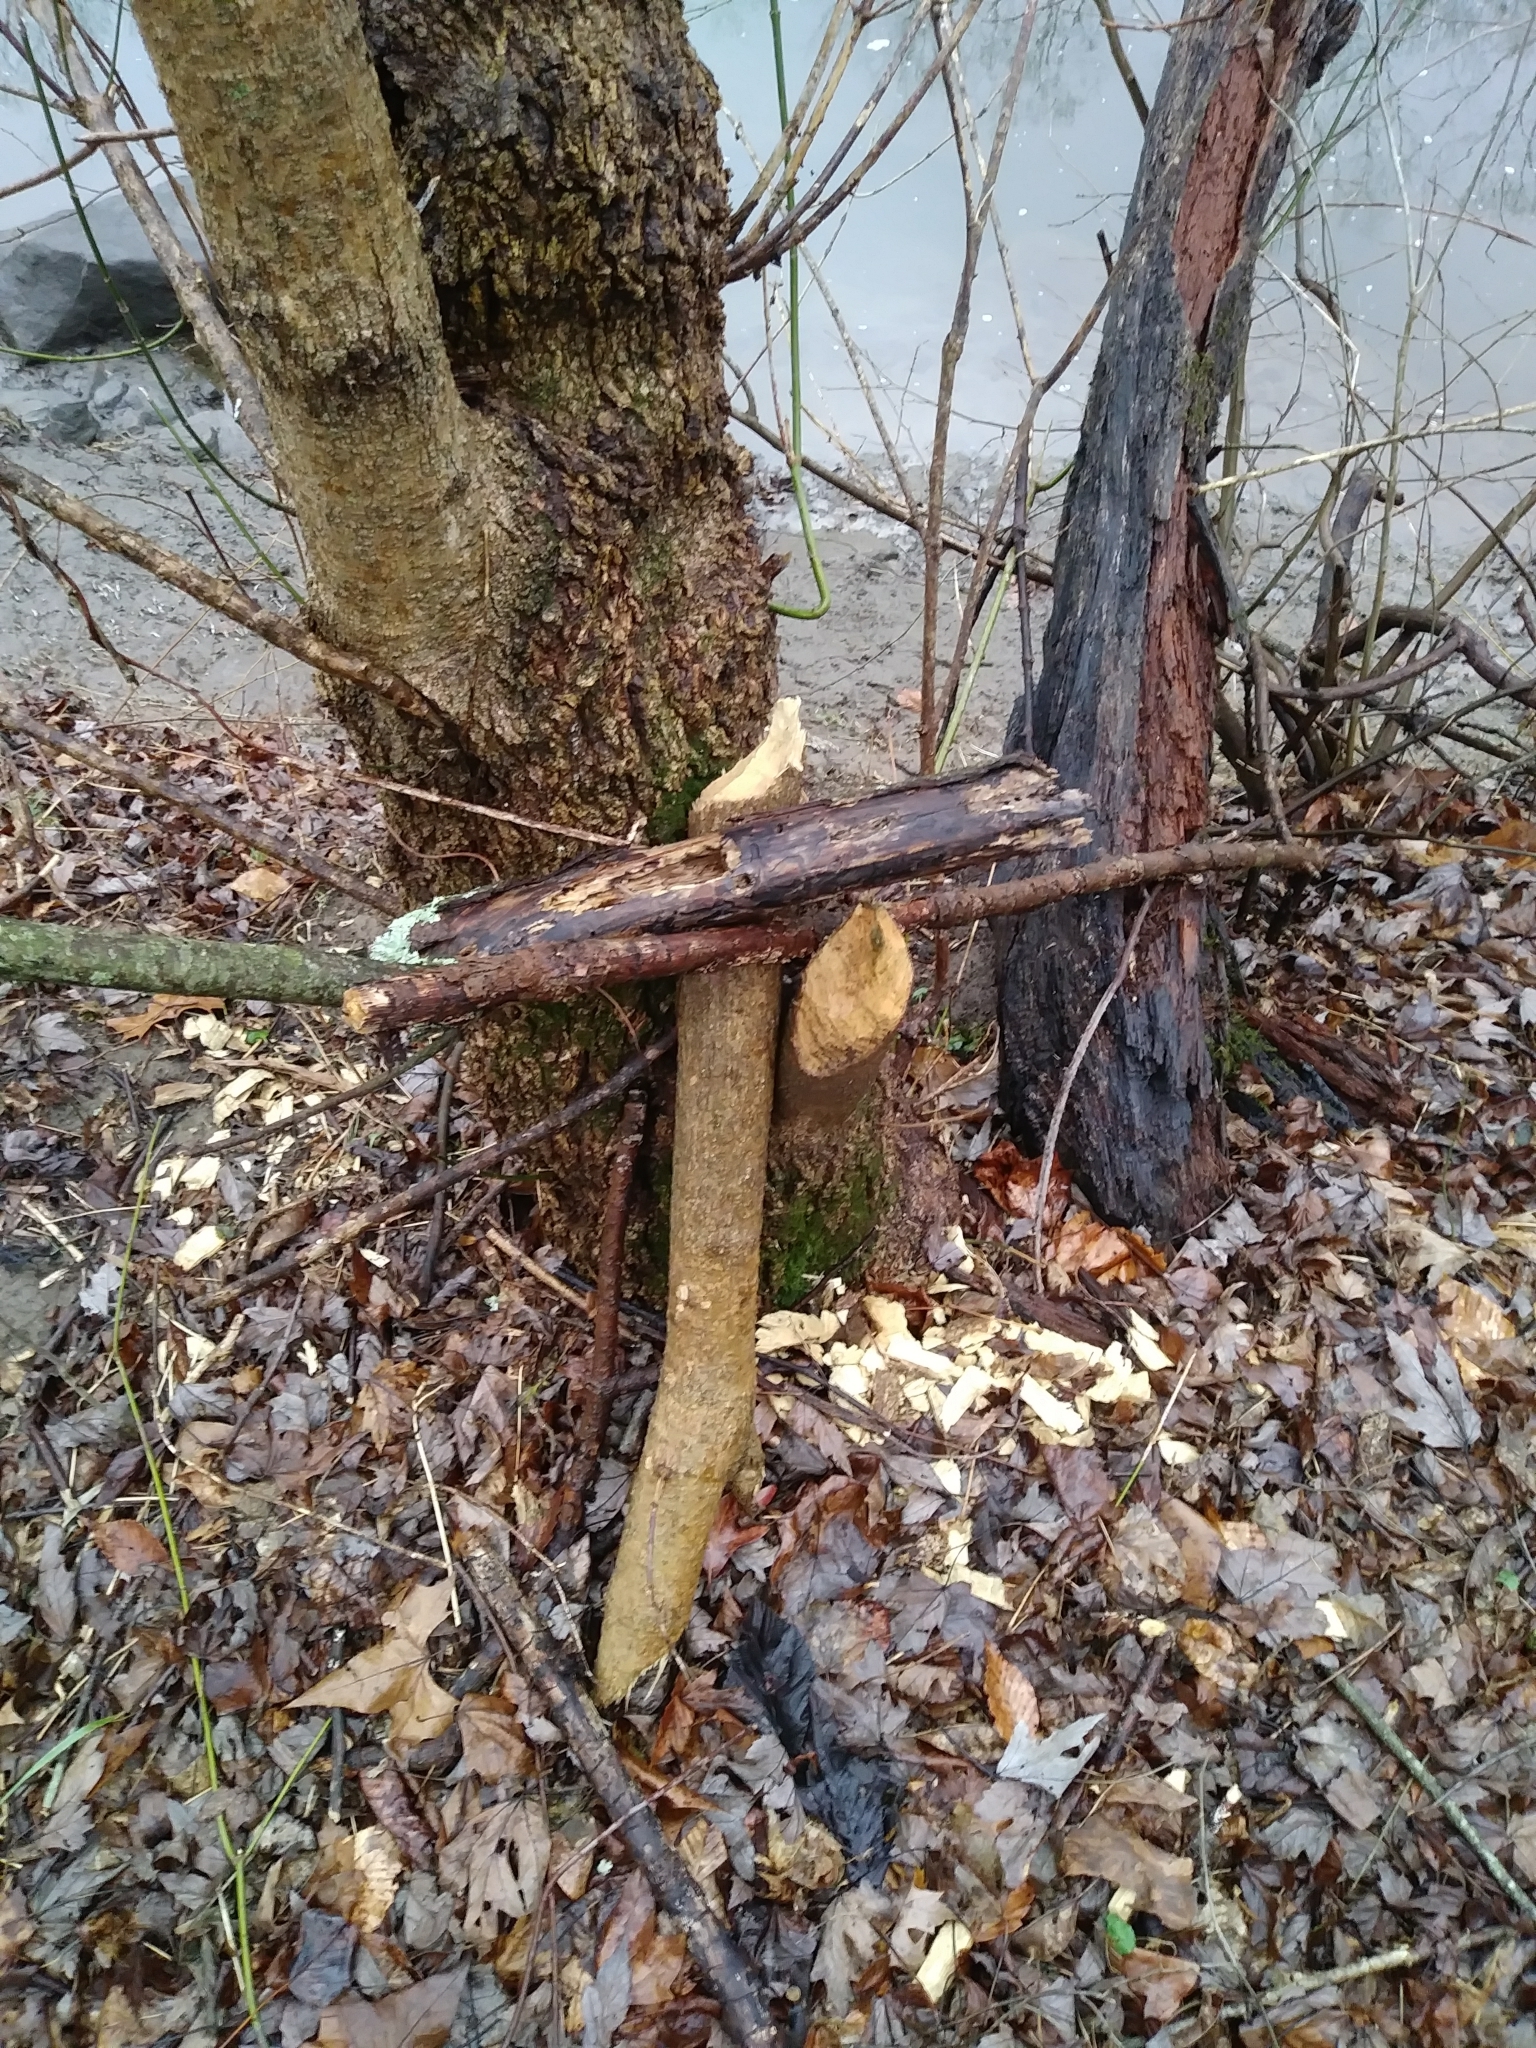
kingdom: Animalia
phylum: Chordata
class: Mammalia
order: Rodentia
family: Castoridae
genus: Castor
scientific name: Castor canadensis
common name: American beaver
